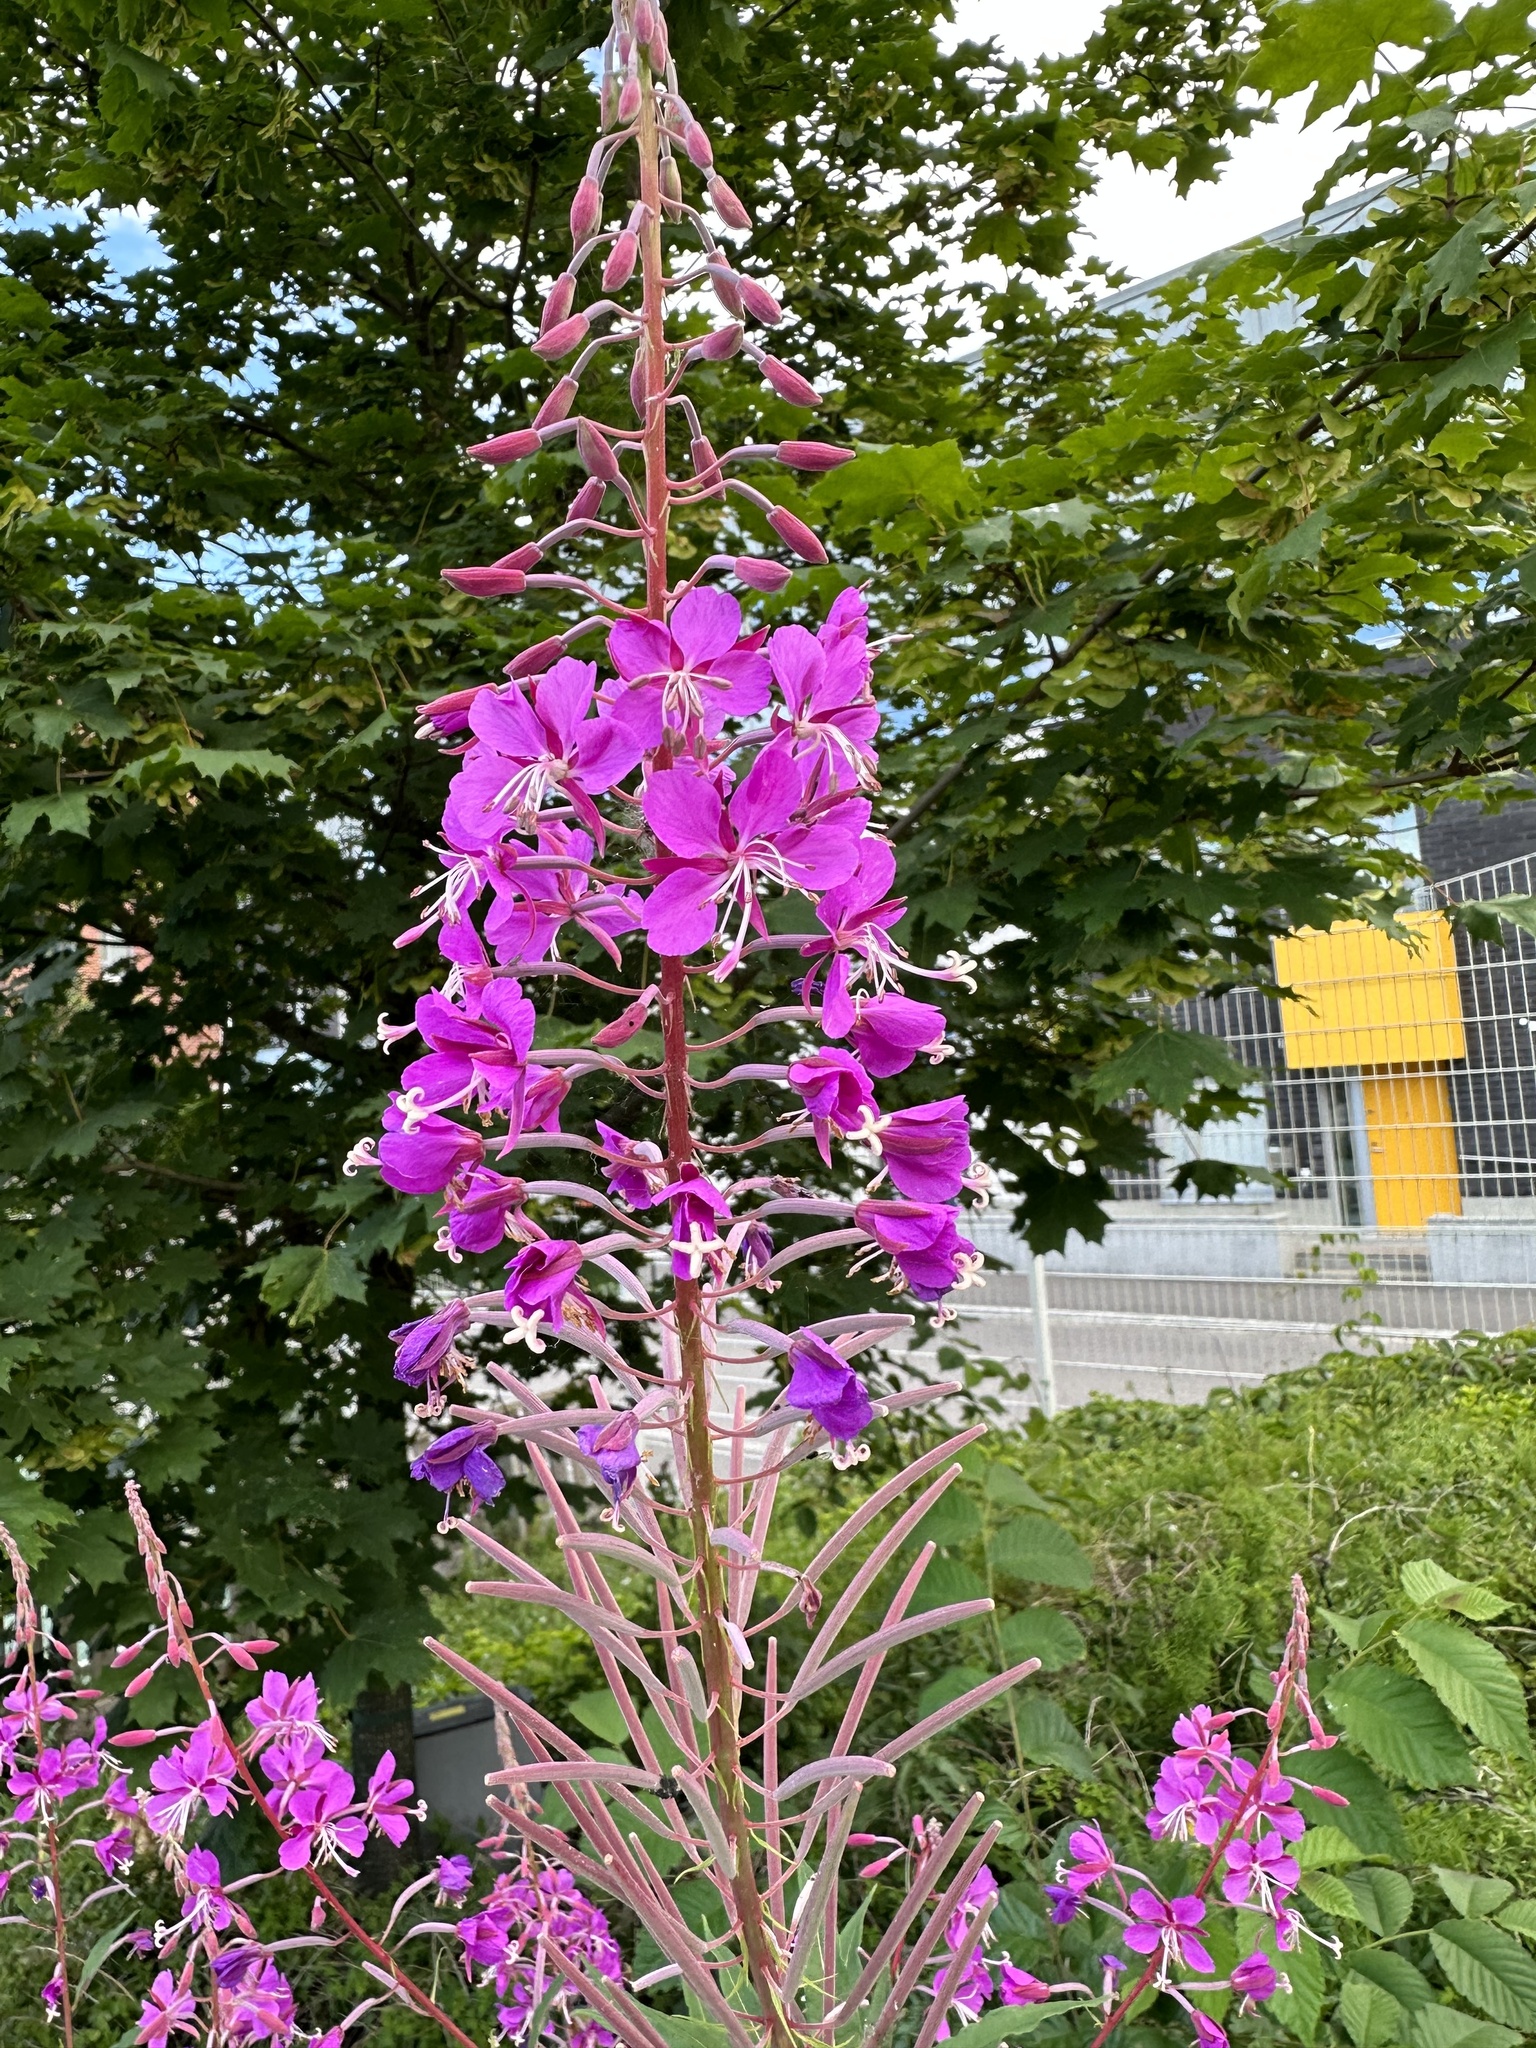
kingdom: Plantae
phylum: Tracheophyta
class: Magnoliopsida
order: Myrtales
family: Onagraceae
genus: Chamaenerion
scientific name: Chamaenerion angustifolium
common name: Fireweed
